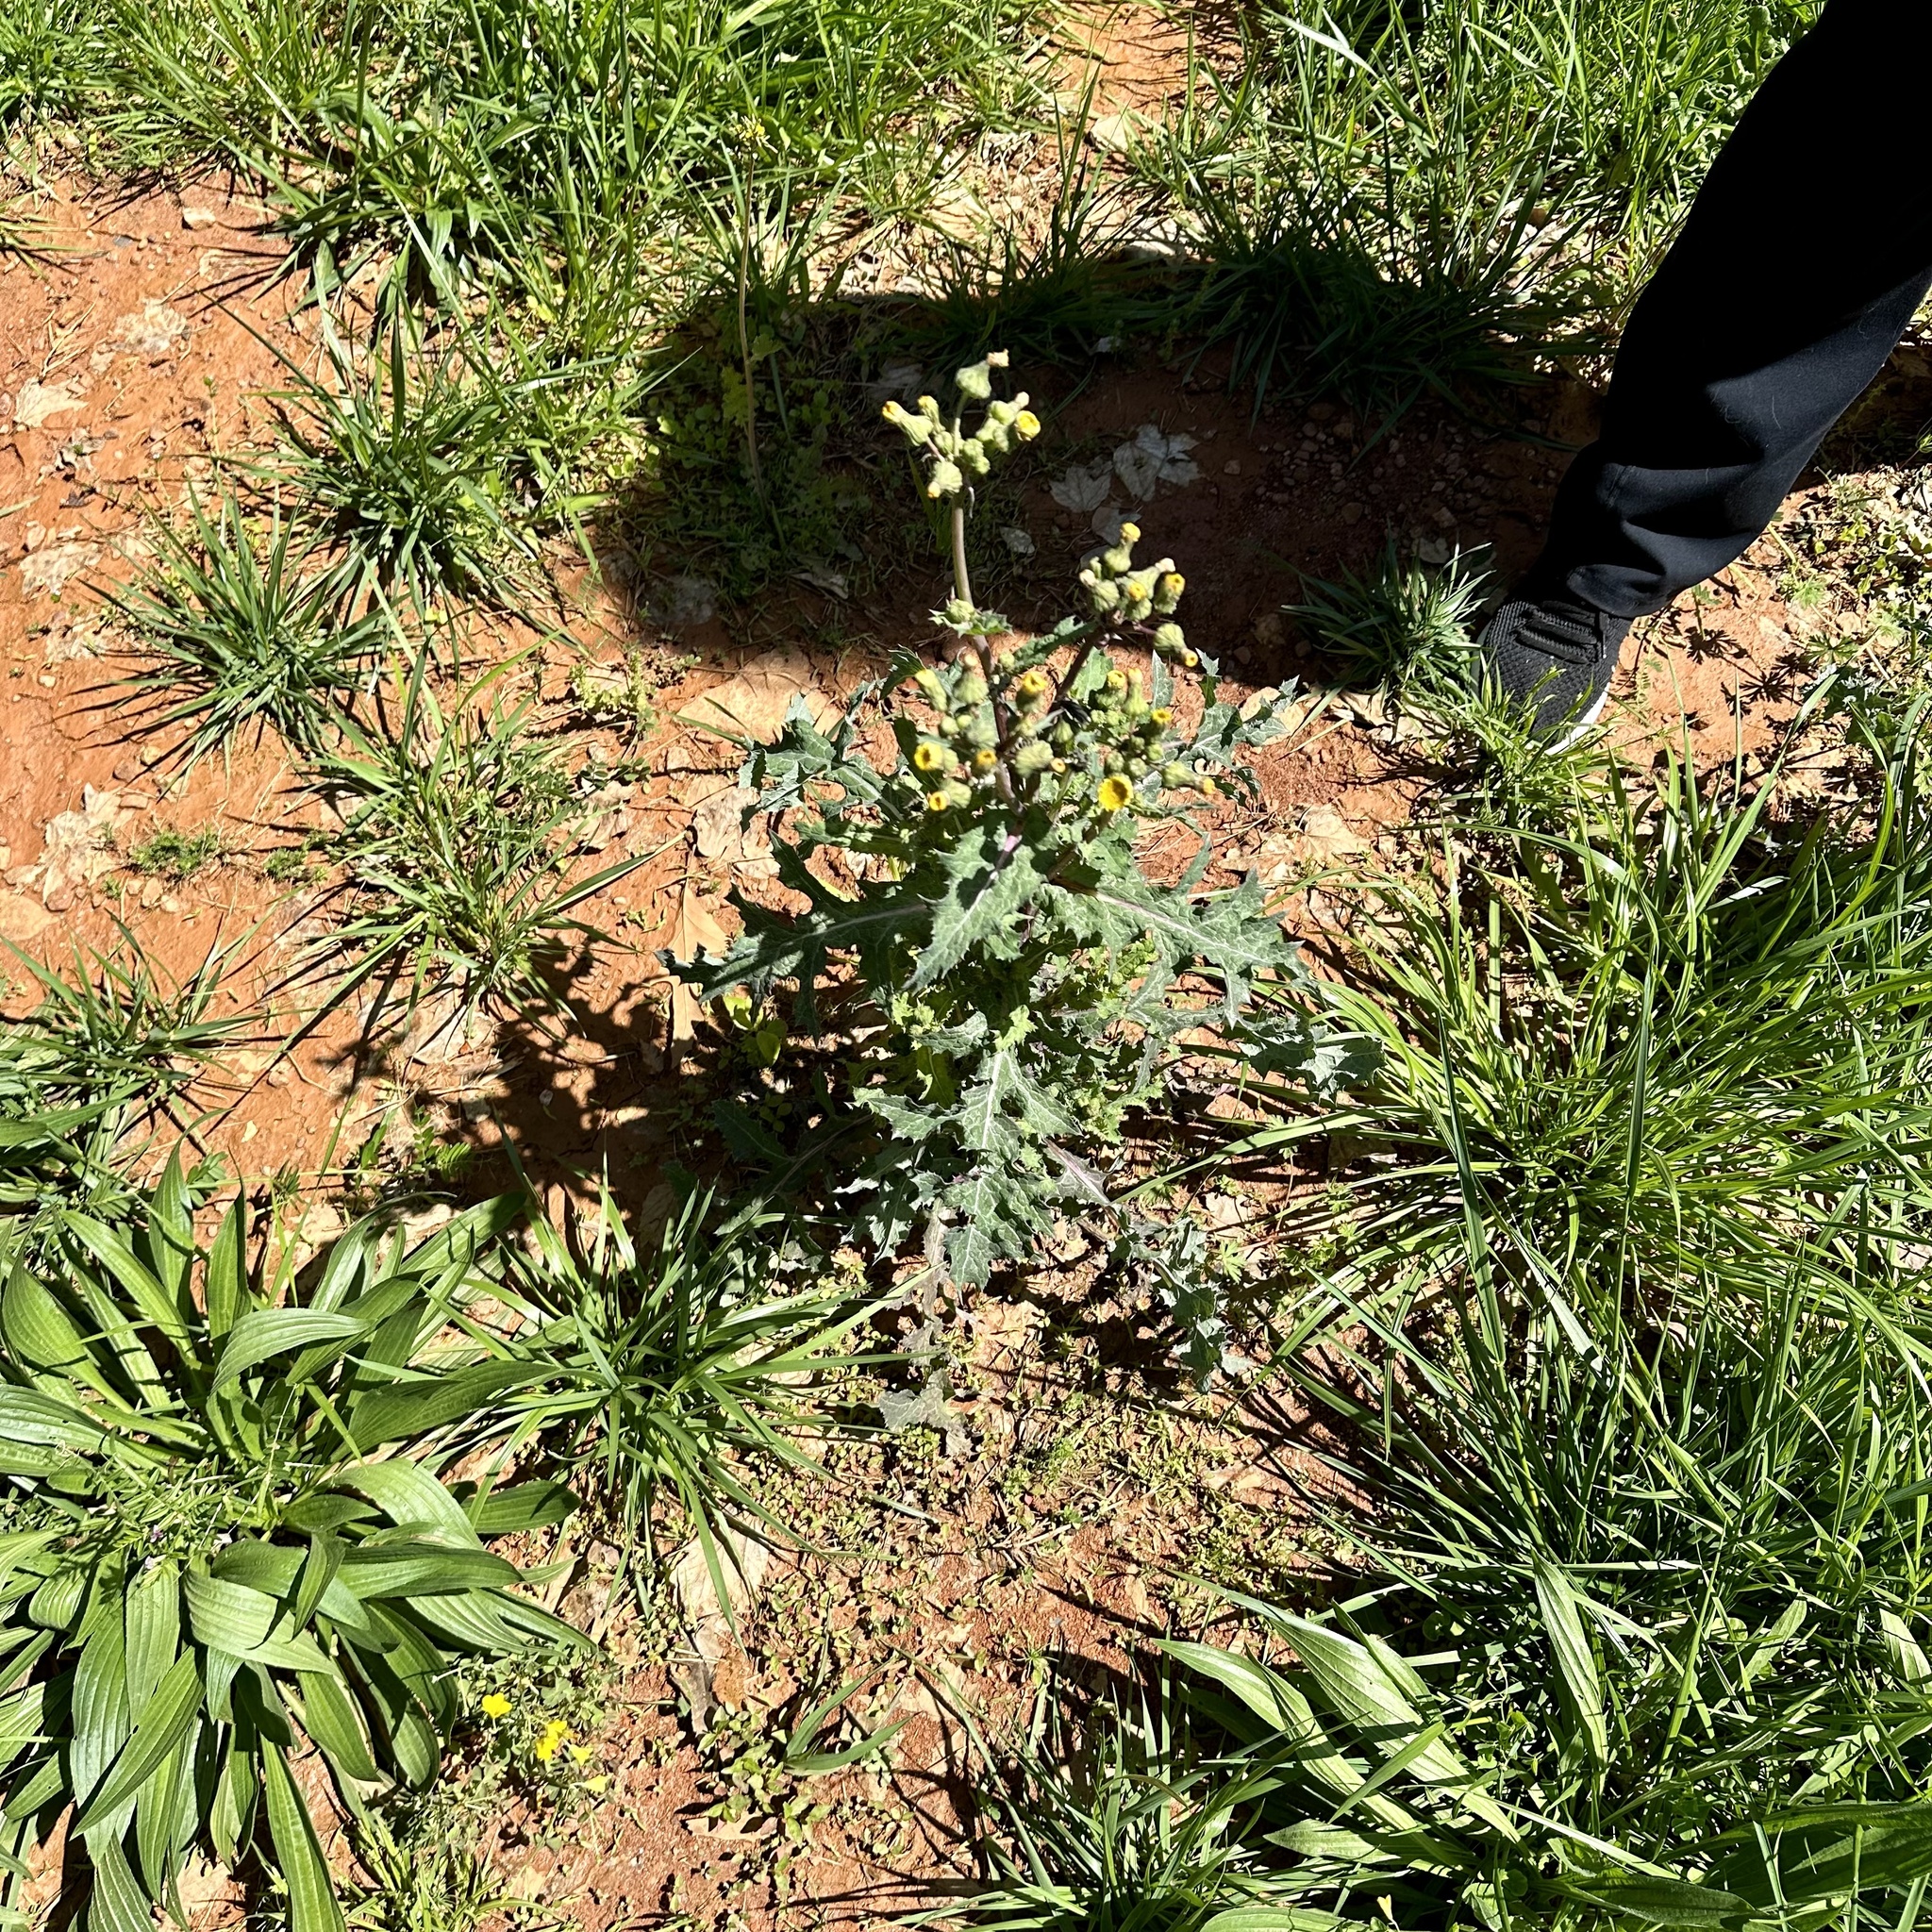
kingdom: Plantae
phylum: Tracheophyta
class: Magnoliopsida
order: Asterales
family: Asteraceae
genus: Sonchus
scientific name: Sonchus asper
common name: Prickly sow-thistle
